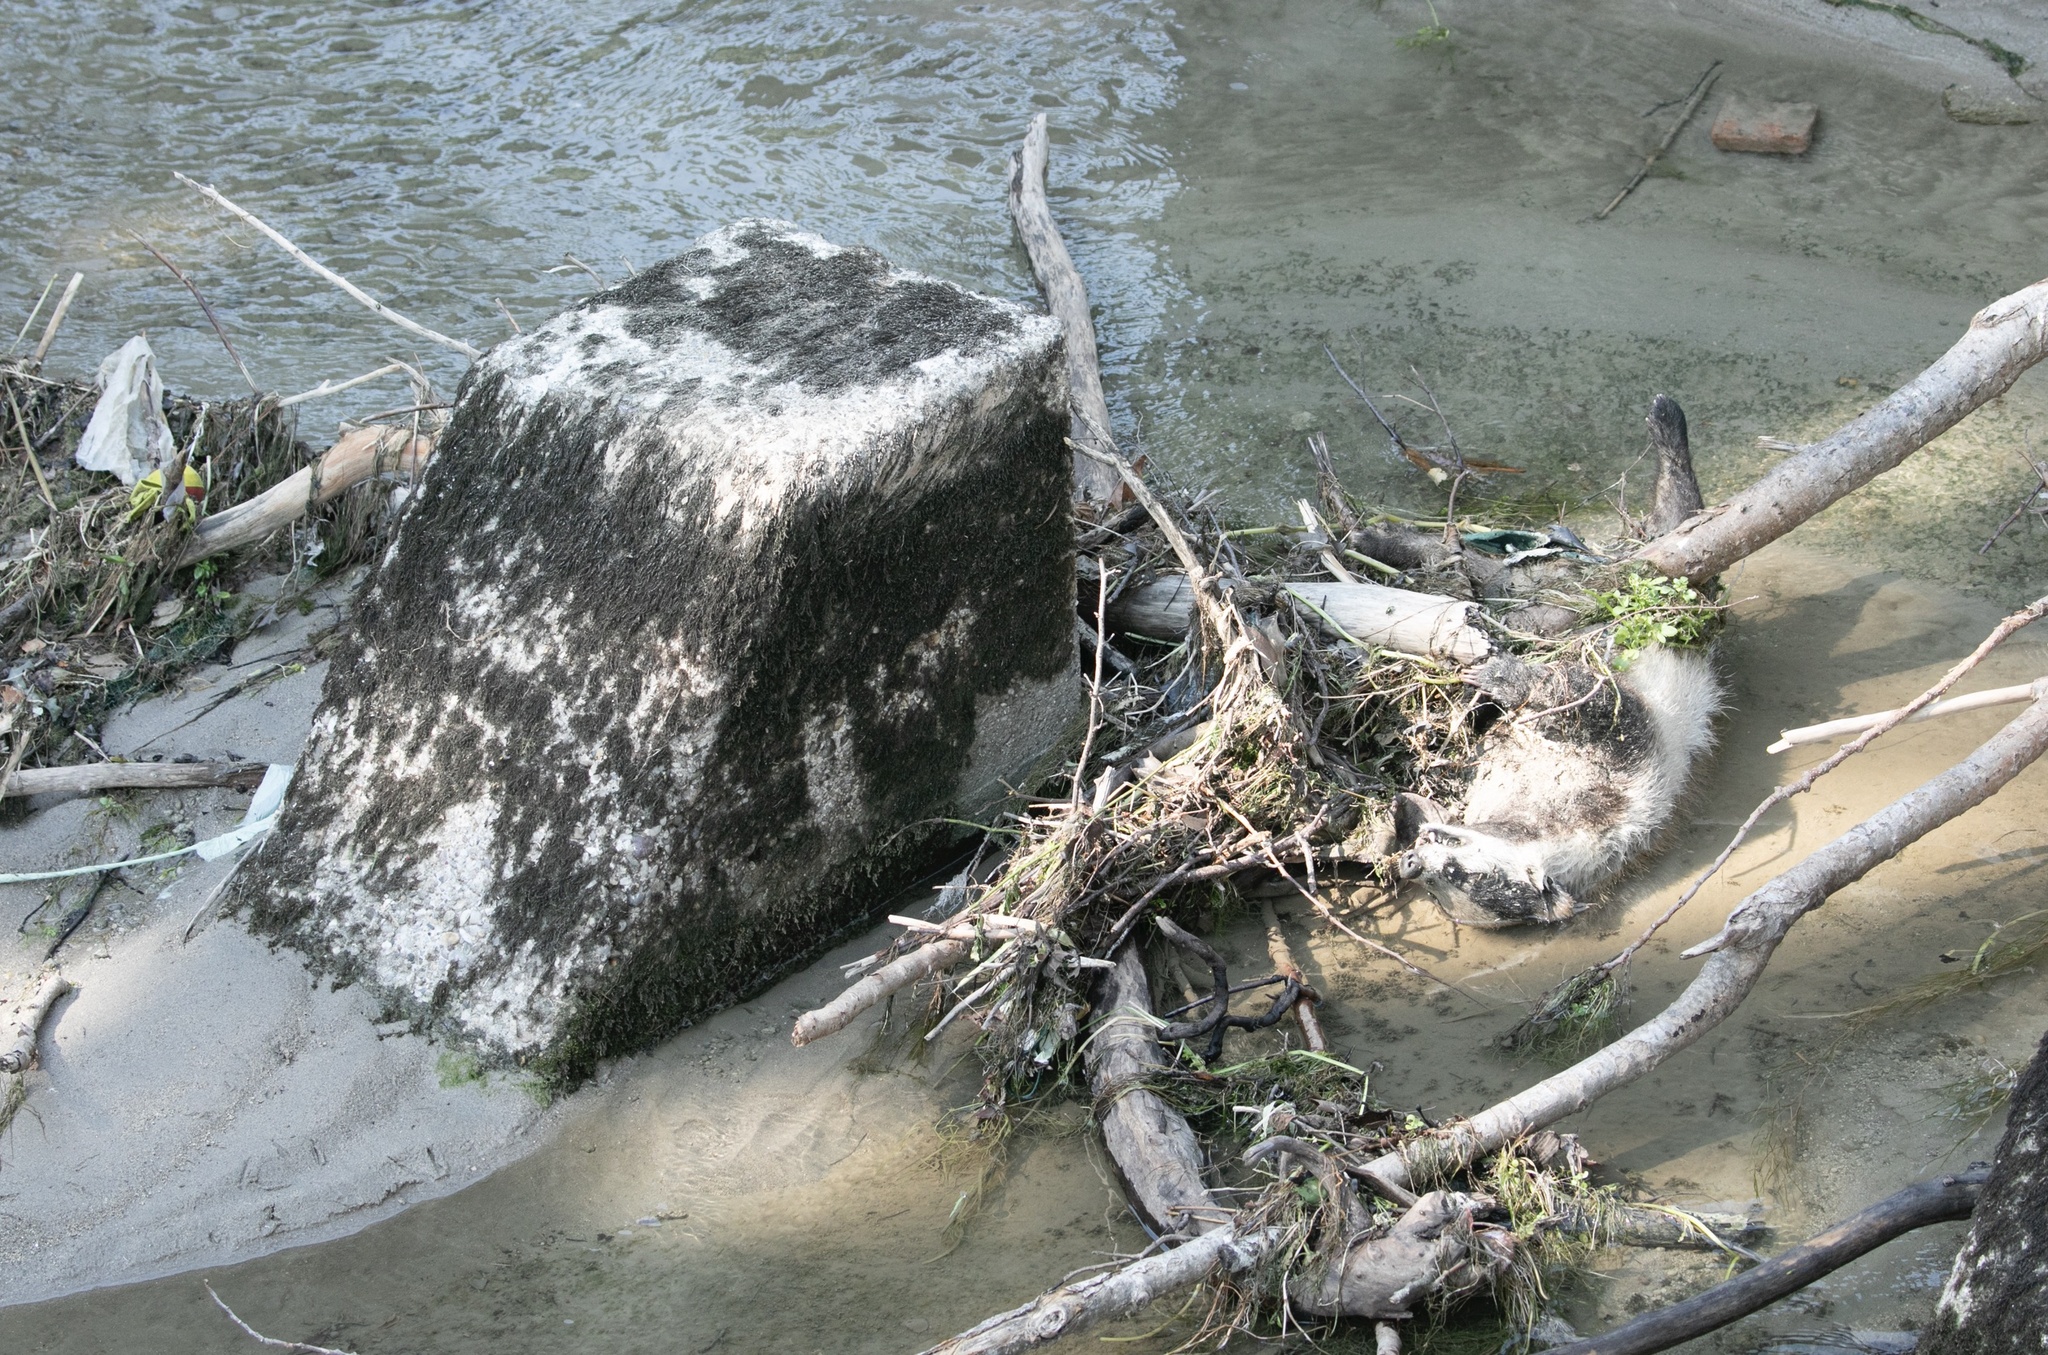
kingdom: Animalia
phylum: Chordata
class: Mammalia
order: Carnivora
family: Mustelidae
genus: Meles
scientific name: Meles meles
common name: Eurasian badger
